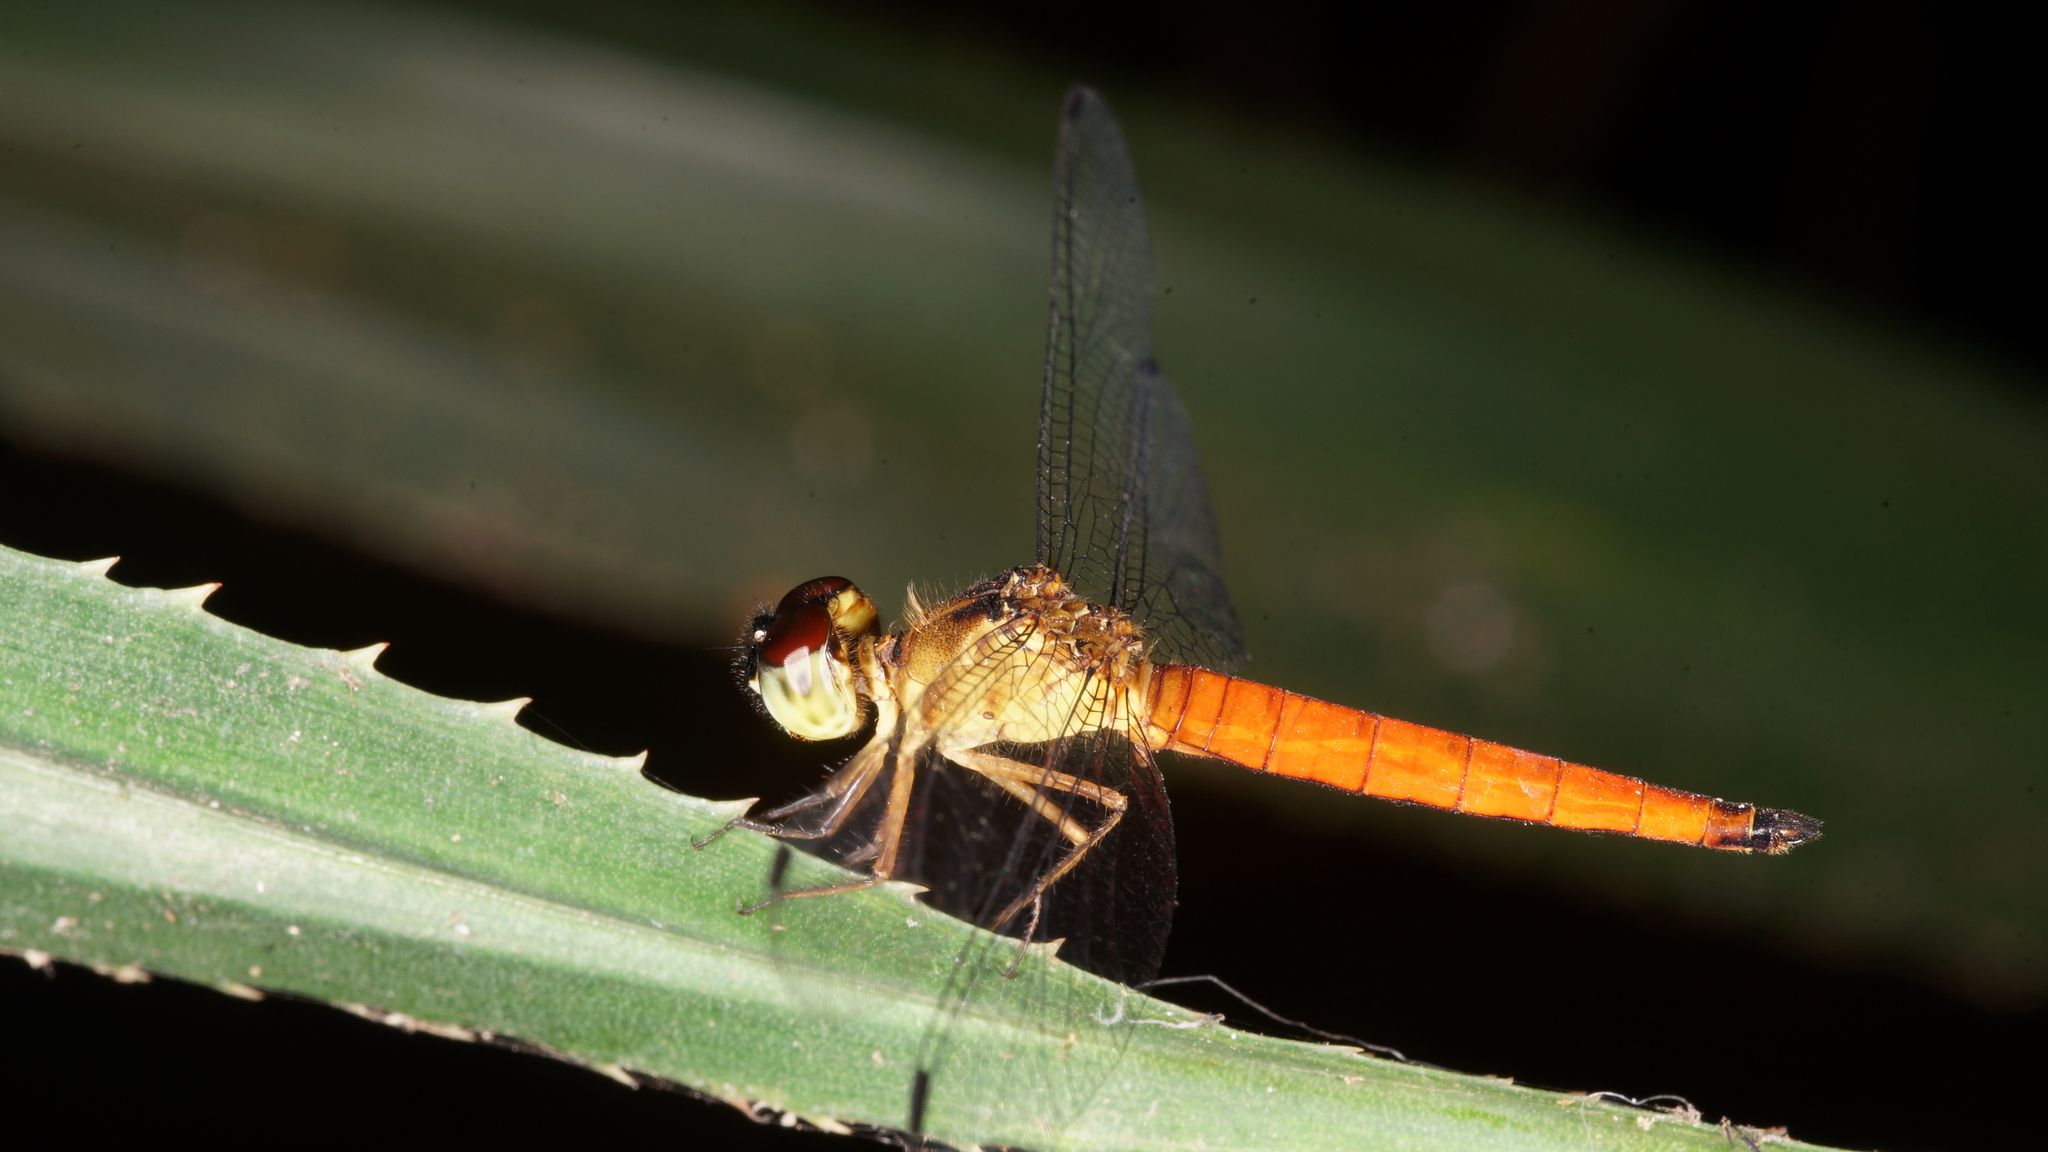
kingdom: Animalia
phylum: Arthropoda
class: Insecta
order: Odonata
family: Libellulidae
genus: Orchithemis
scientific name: Orchithemis pulcherrima
